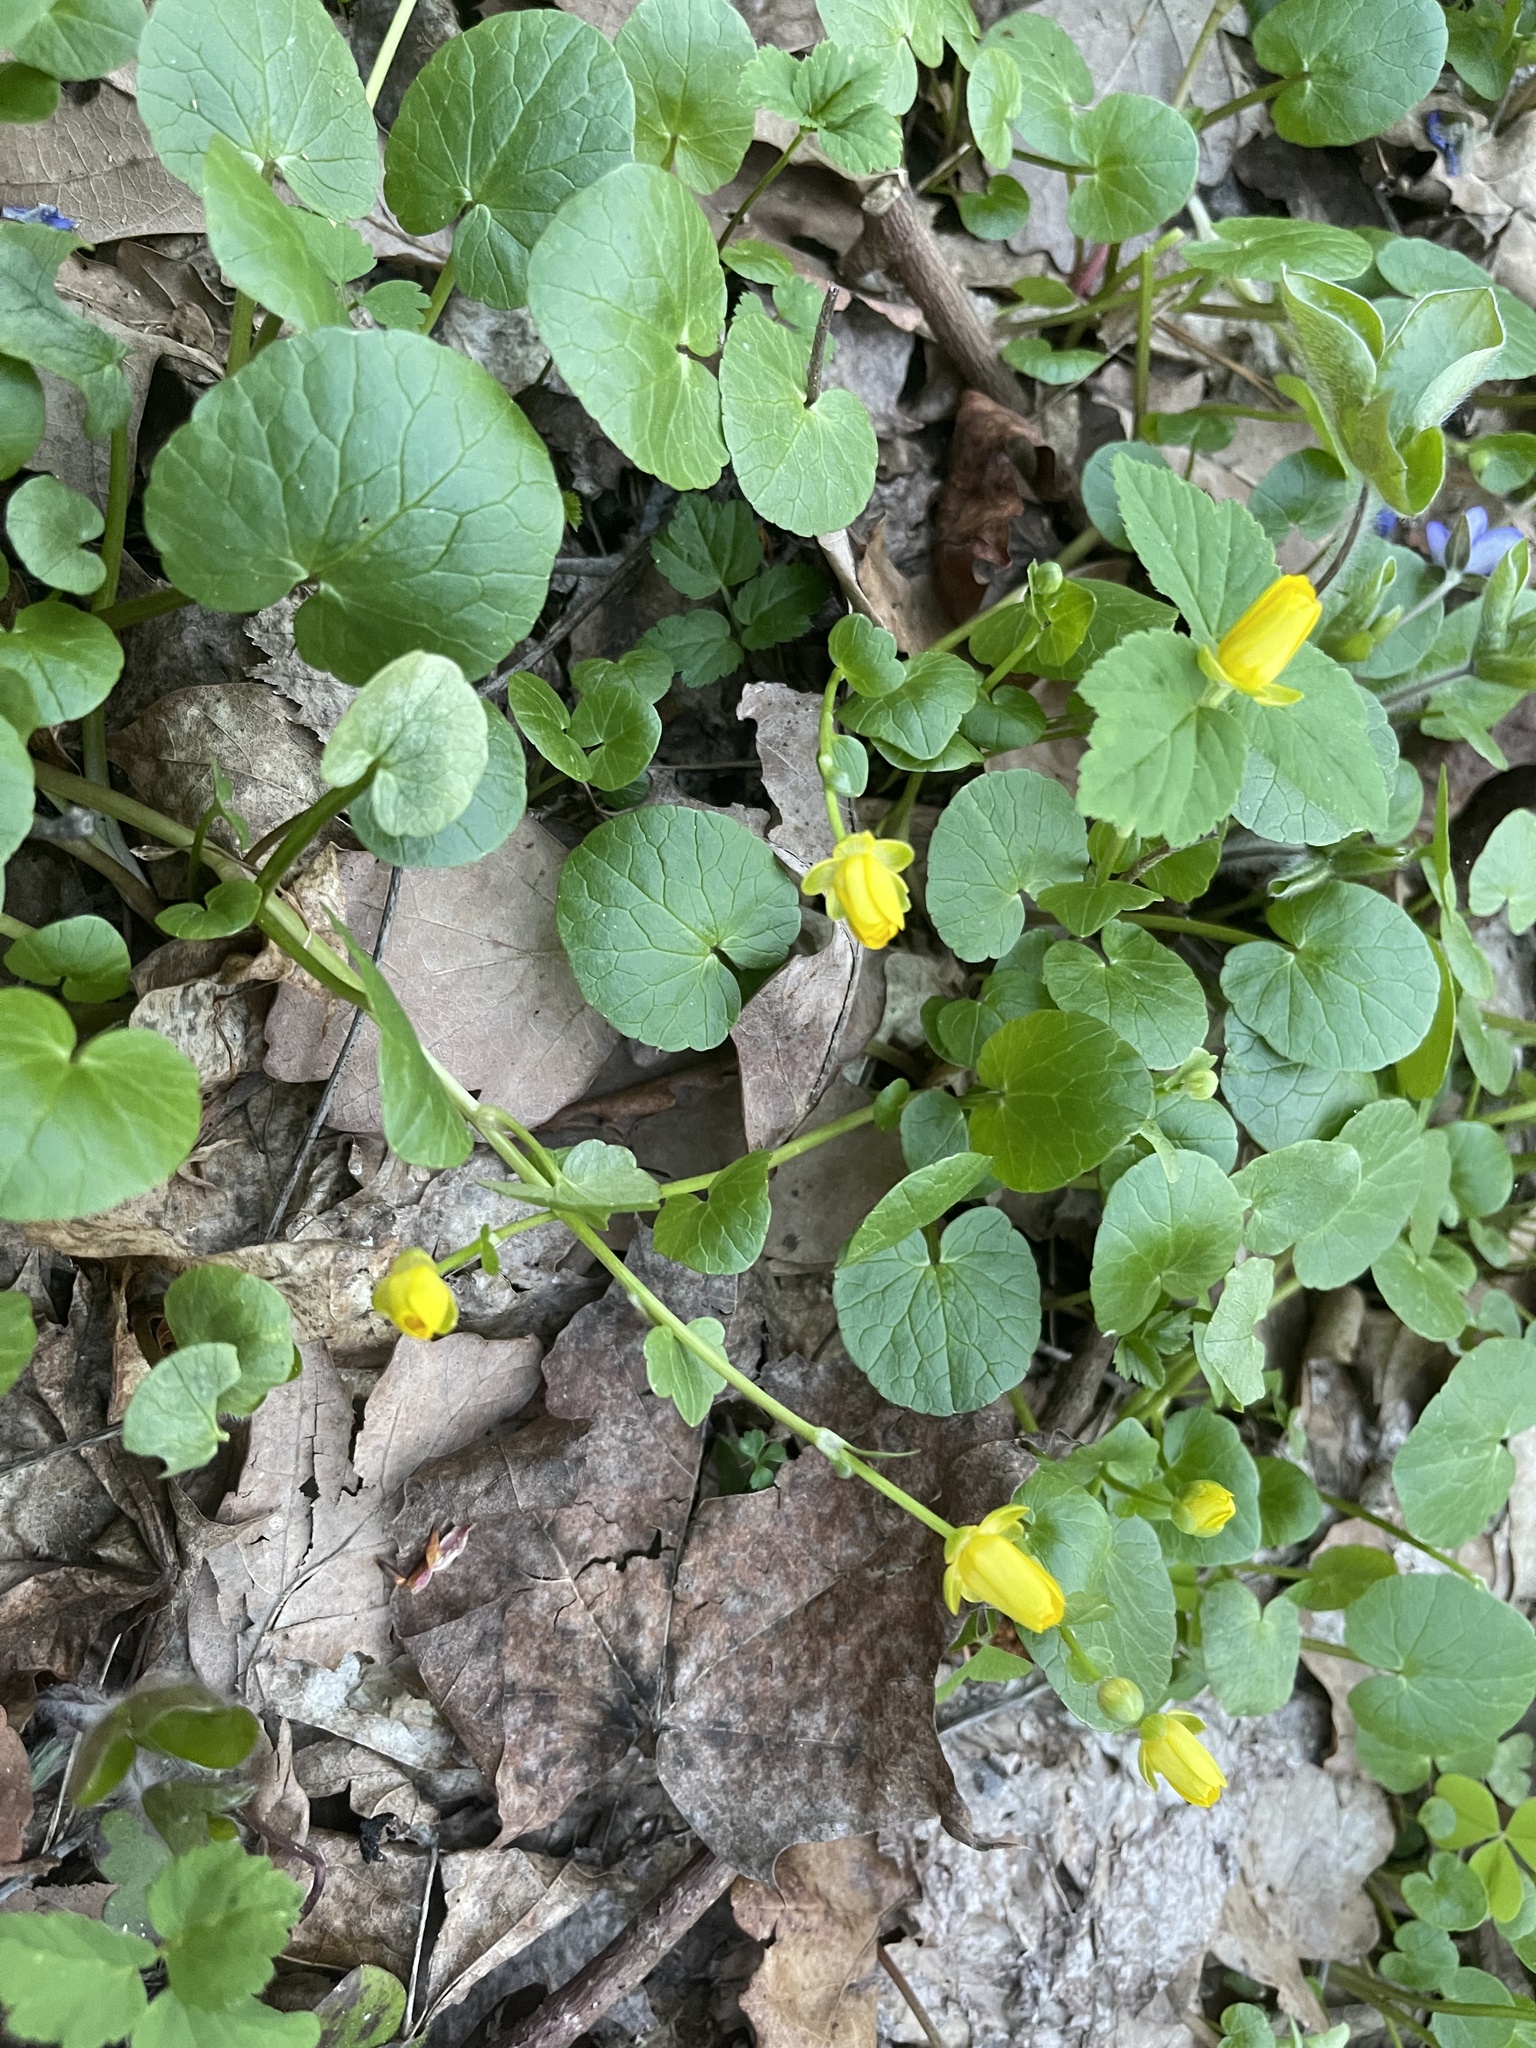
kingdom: Plantae
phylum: Tracheophyta
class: Magnoliopsida
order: Ranunculales
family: Ranunculaceae
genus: Ficaria
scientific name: Ficaria verna
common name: Lesser celandine
